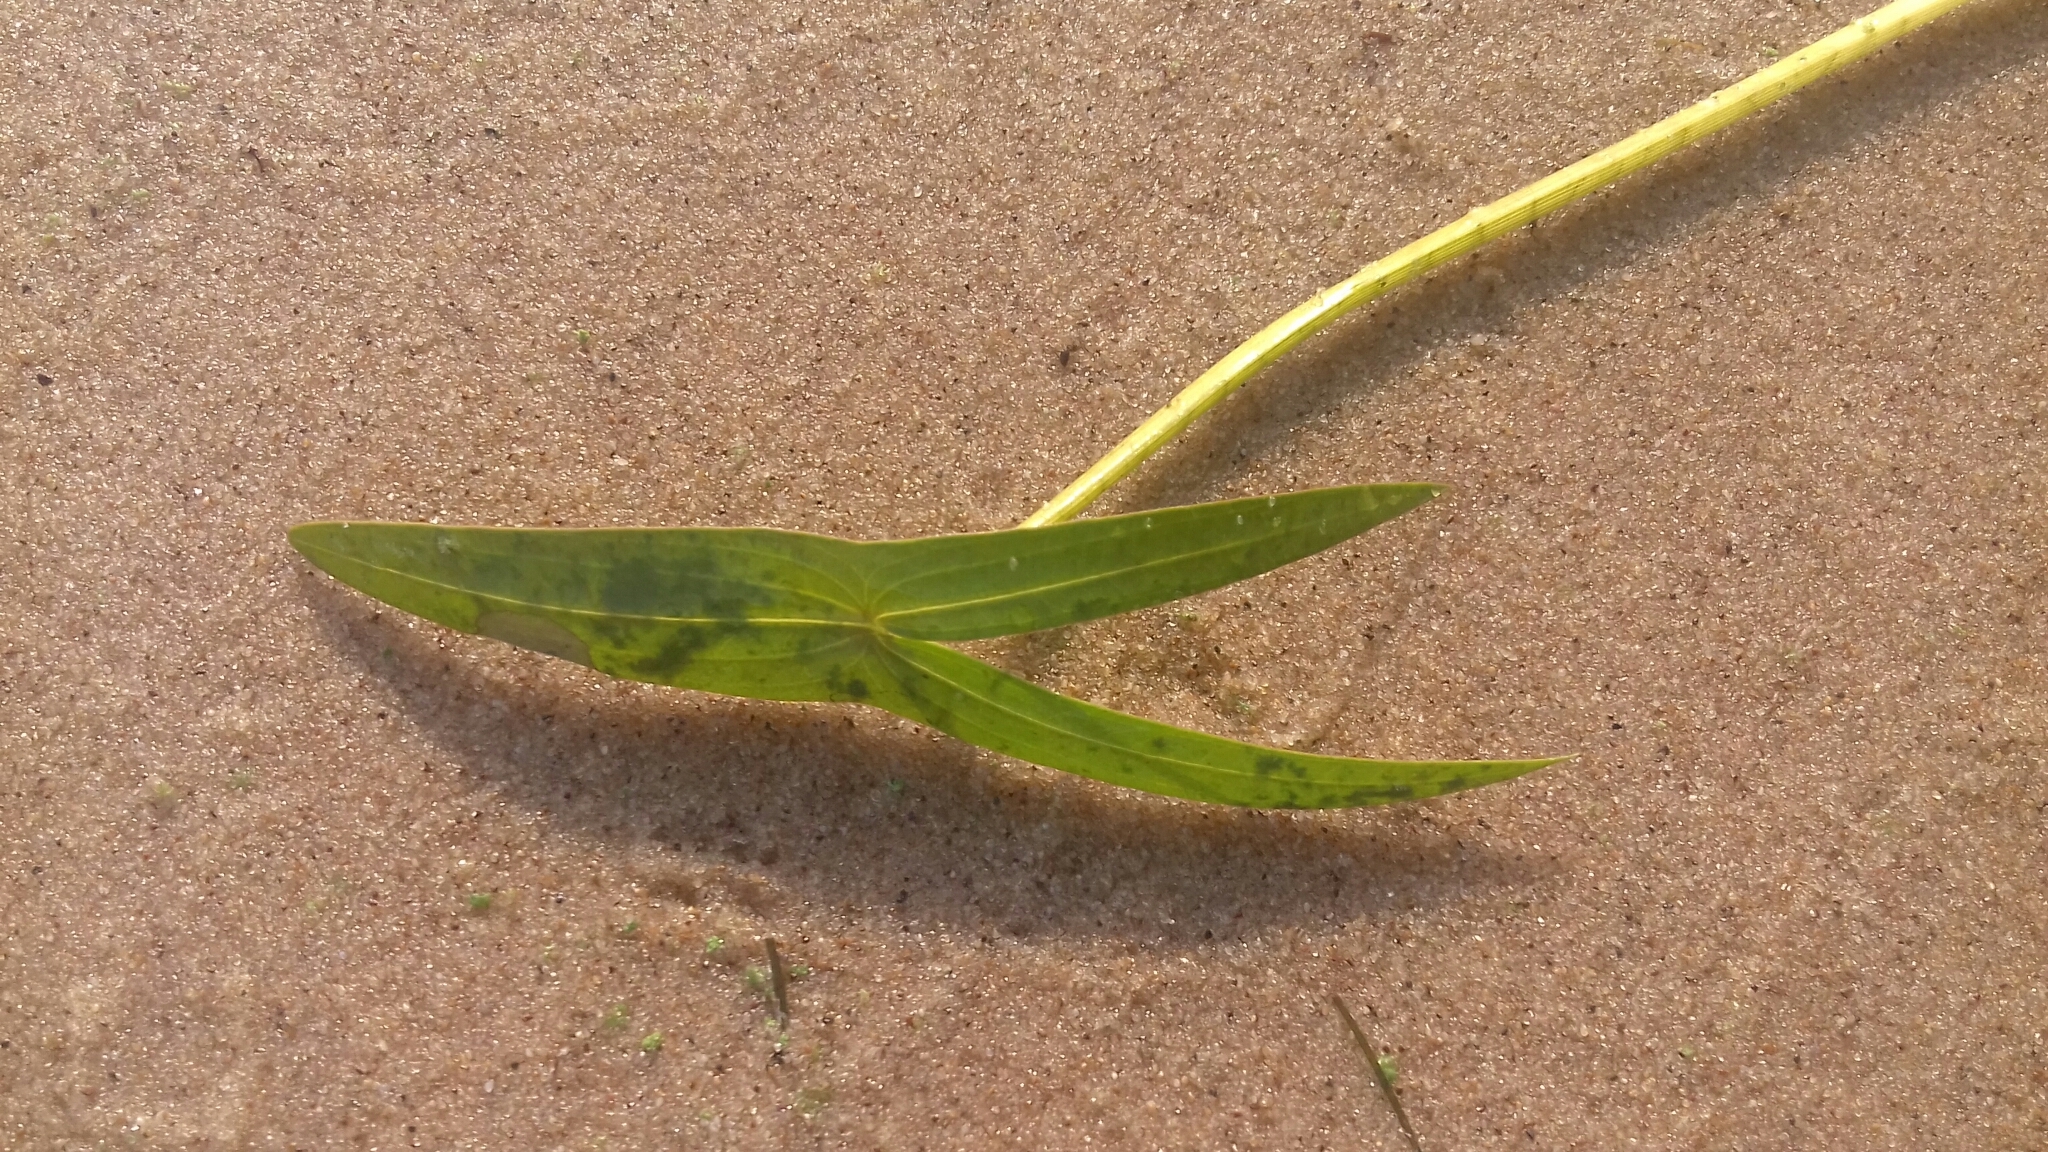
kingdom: Plantae
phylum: Tracheophyta
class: Liliopsida
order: Alismatales
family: Alismataceae
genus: Sagittaria
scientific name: Sagittaria sagittifolia
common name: Arrowhead
